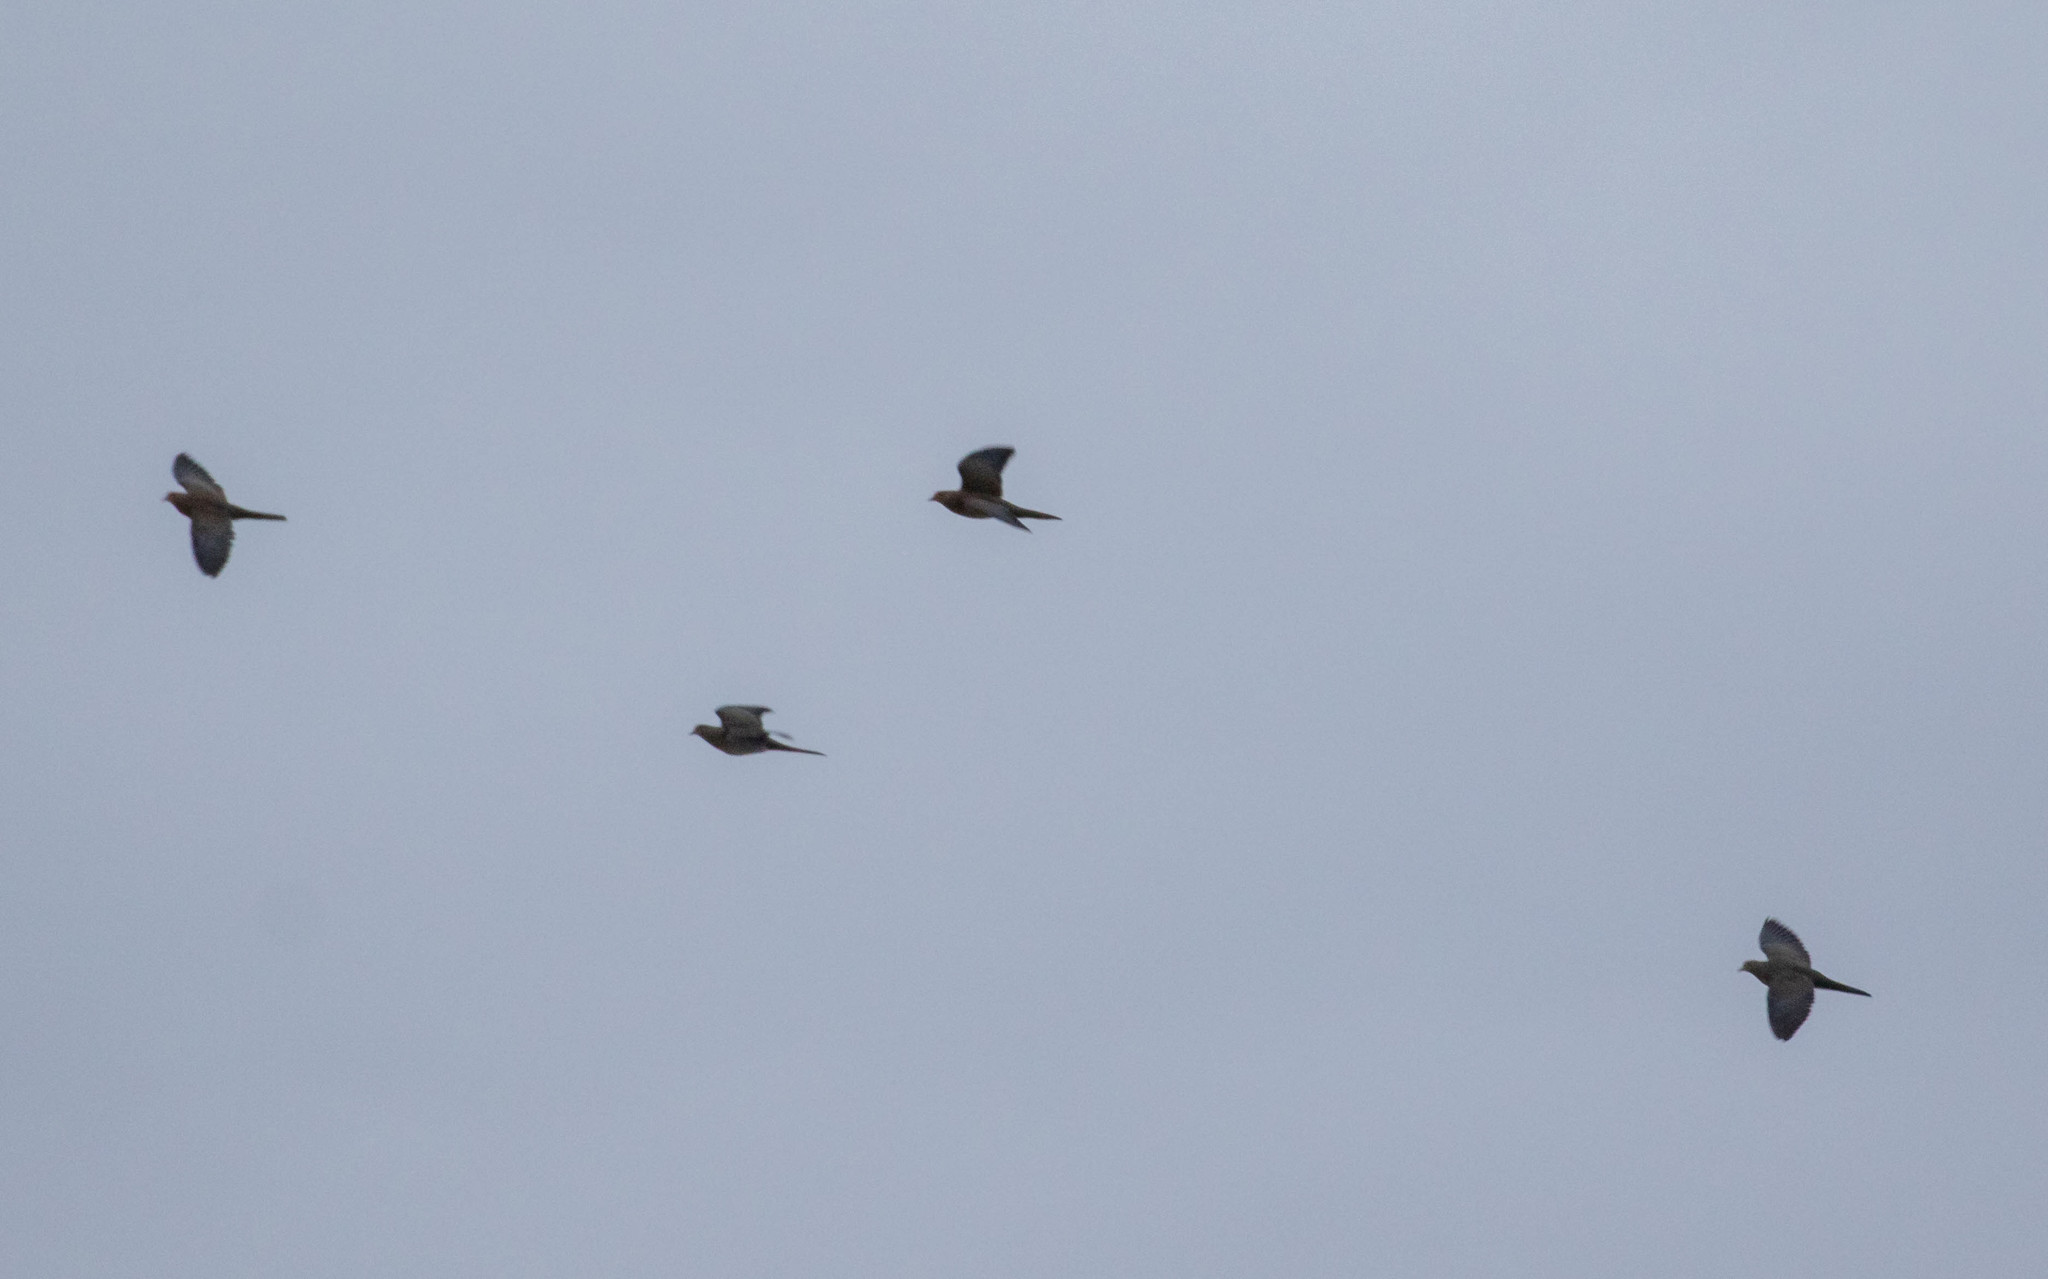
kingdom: Animalia
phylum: Chordata
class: Aves
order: Columbiformes
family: Columbidae
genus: Zenaida
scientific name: Zenaida macroura
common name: Mourning dove
